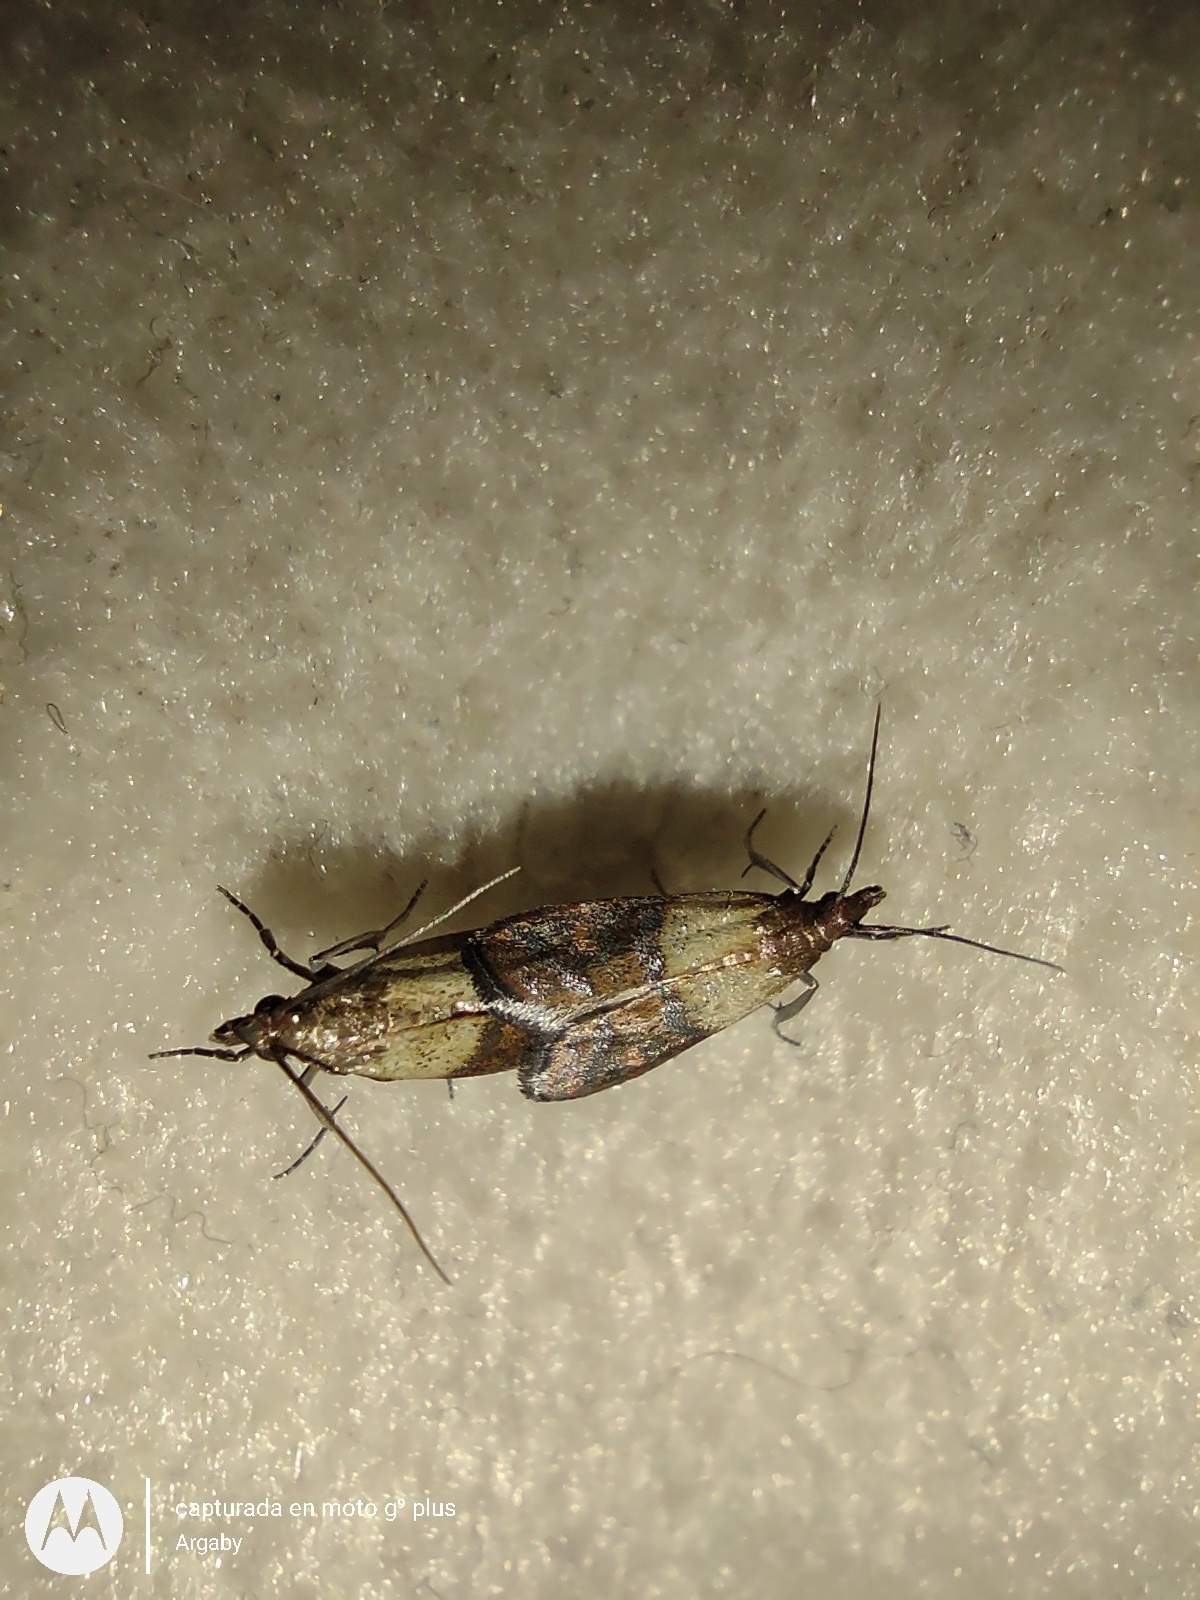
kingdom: Animalia
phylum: Arthropoda
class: Insecta
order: Lepidoptera
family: Pyralidae
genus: Plodia
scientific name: Plodia interpunctella
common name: Indian meal moth
